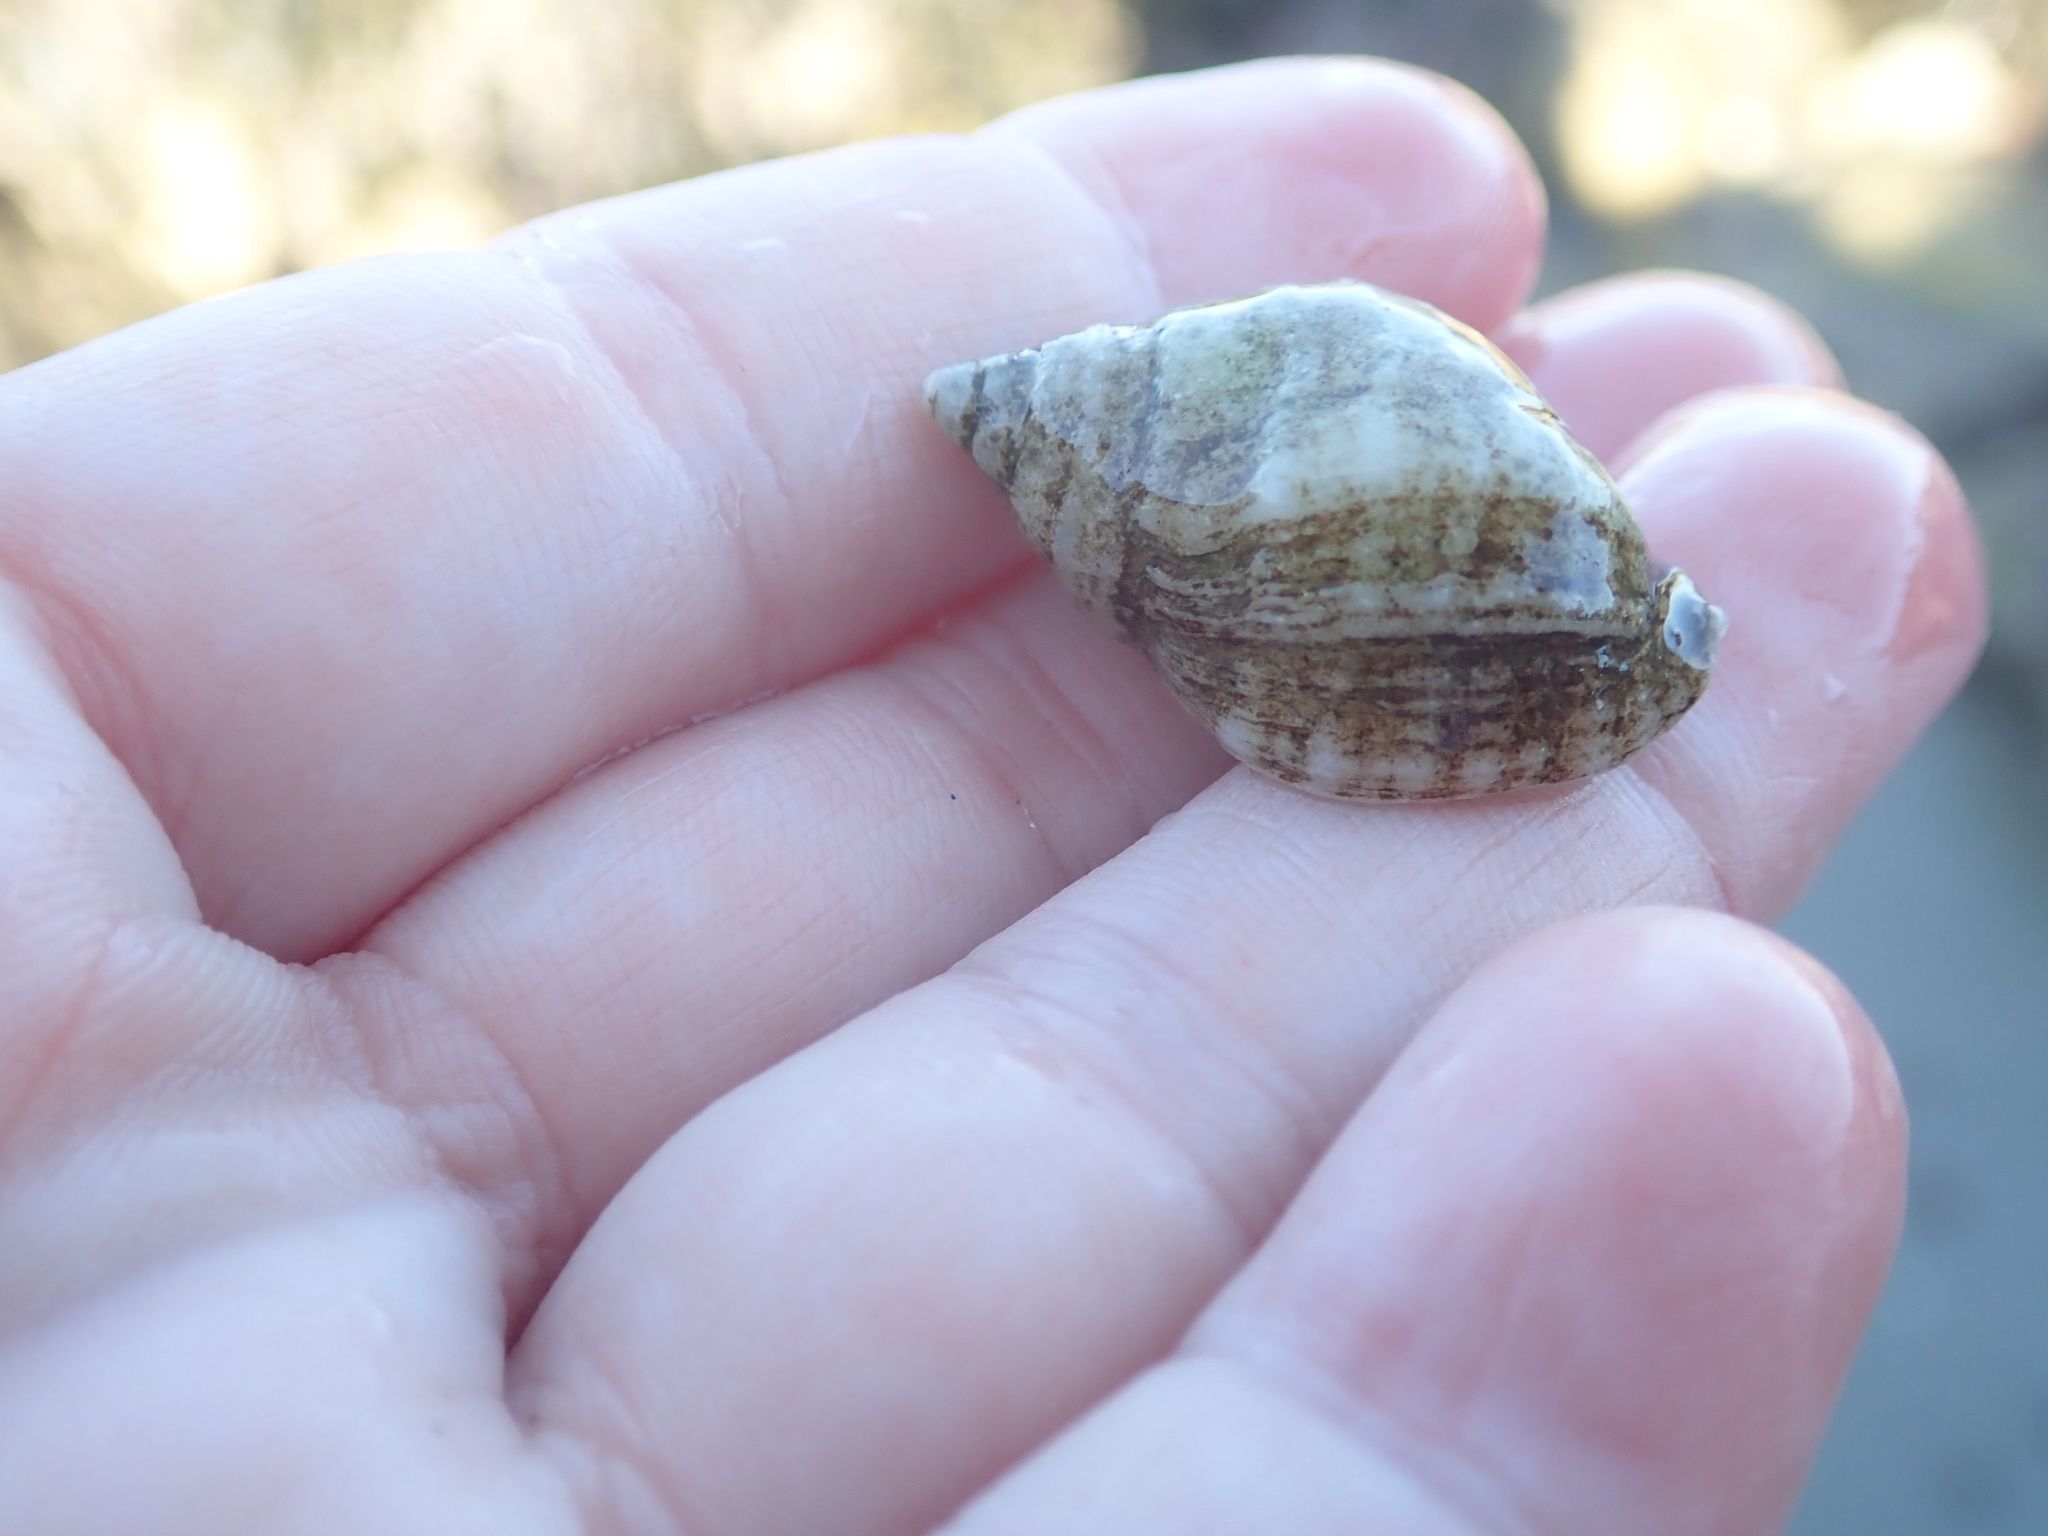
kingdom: Animalia
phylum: Mollusca
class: Gastropoda
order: Neogastropoda
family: Muricidae
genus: Nucella
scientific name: Nucella lapillus
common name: Dog whelk
